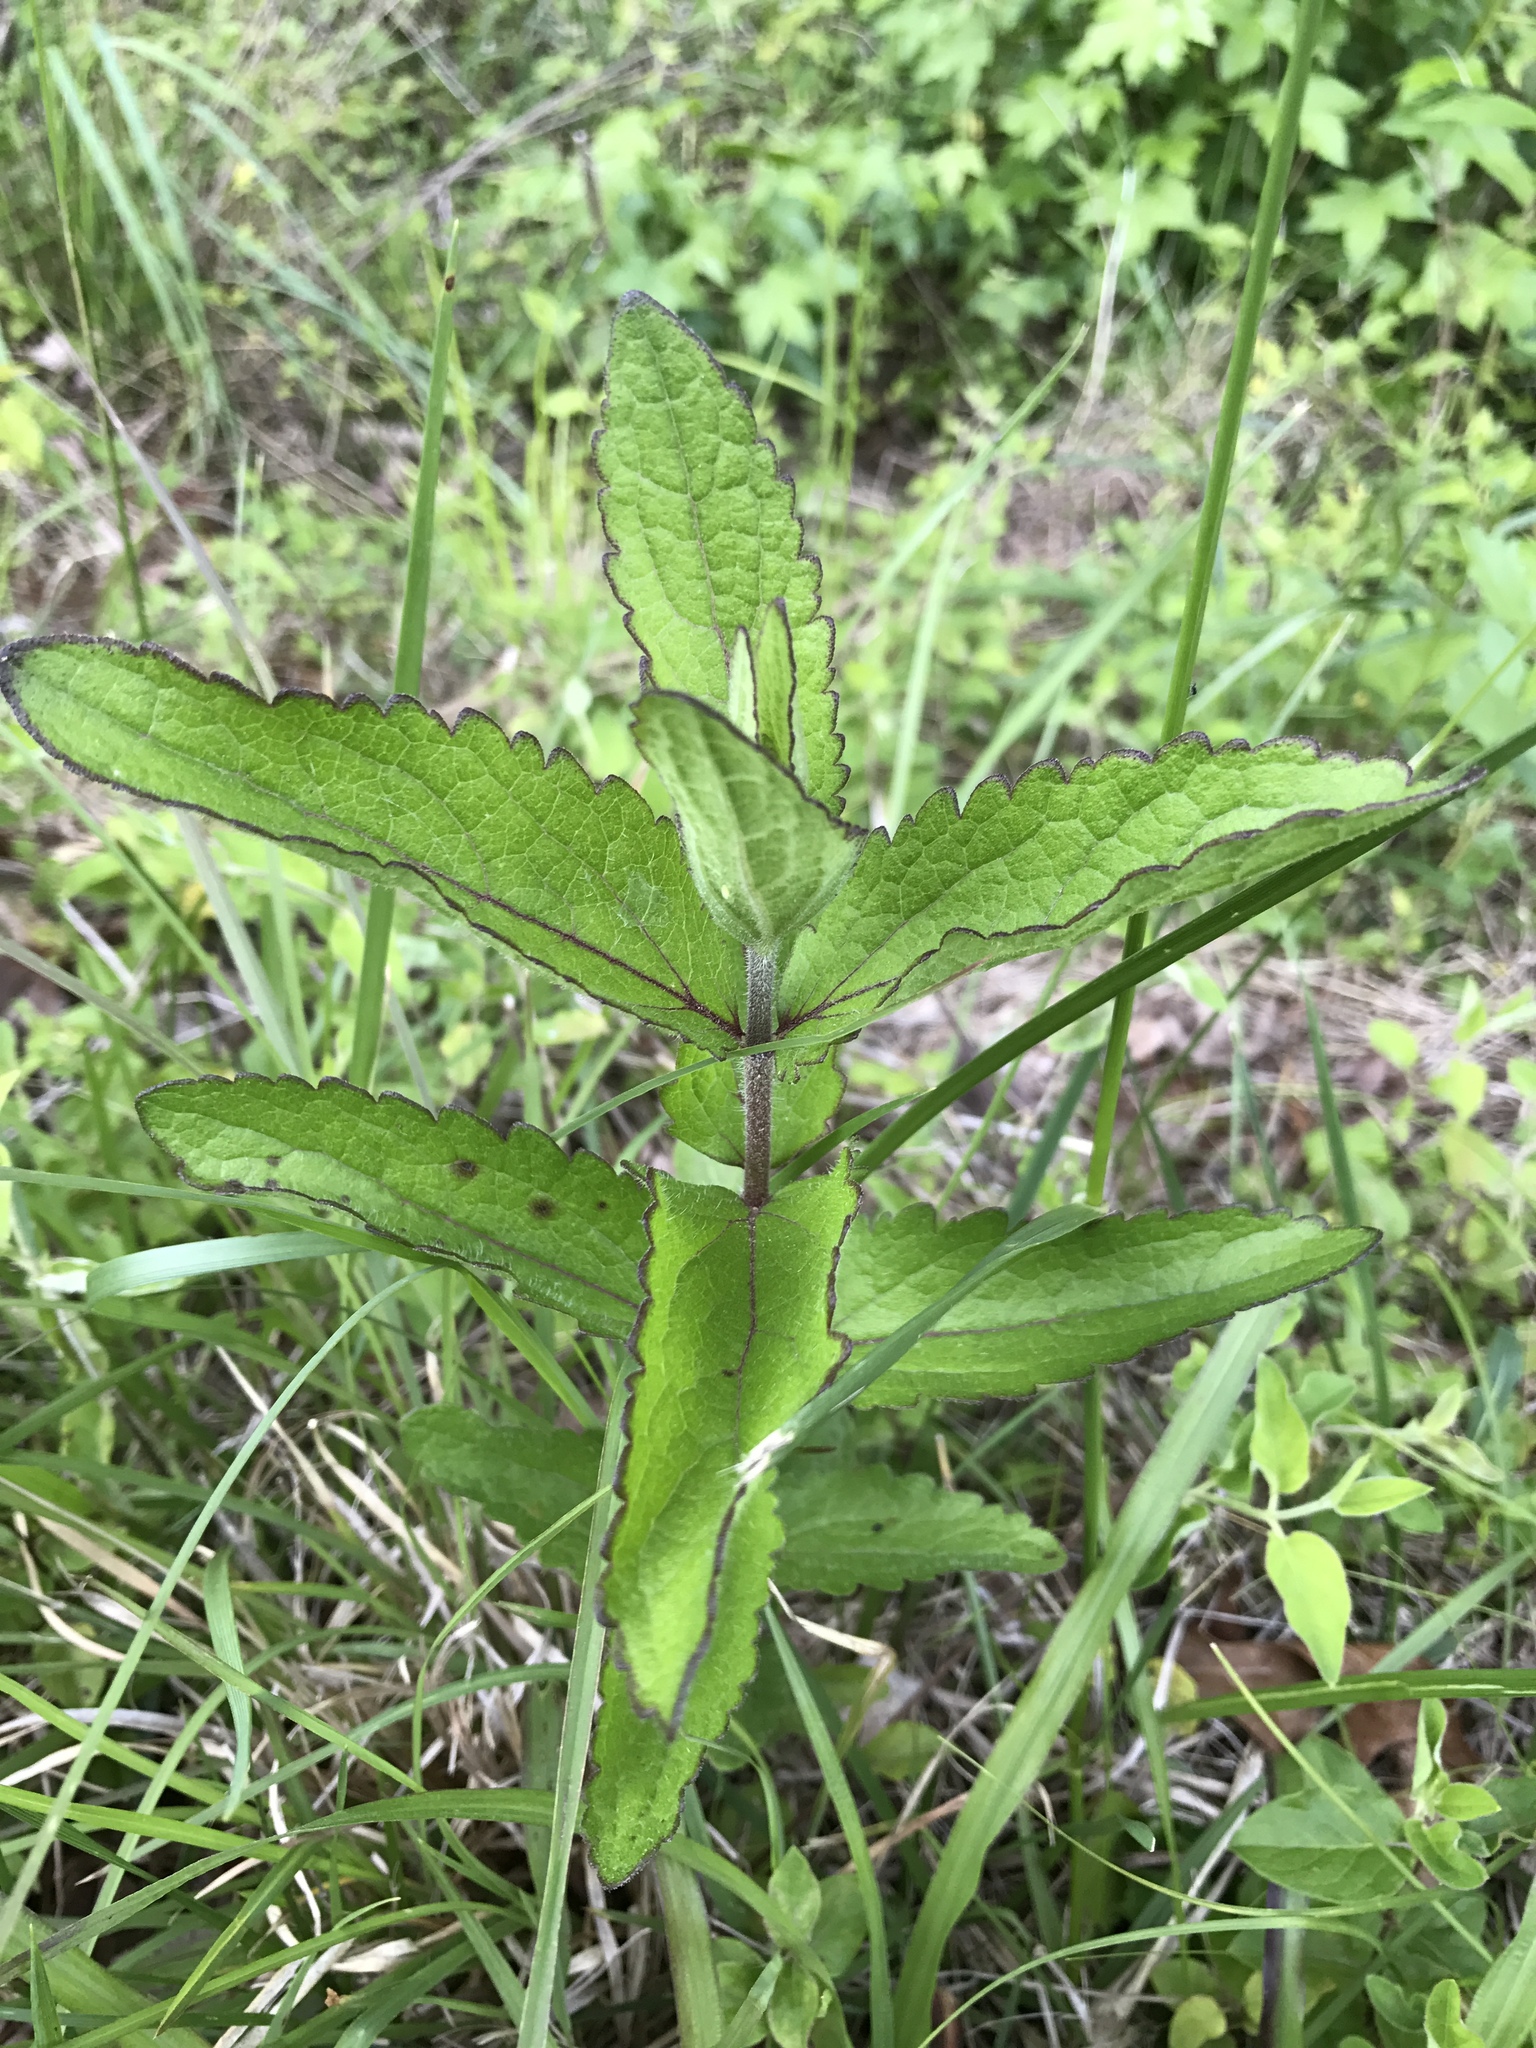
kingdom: Plantae
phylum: Tracheophyta
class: Magnoliopsida
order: Asterales
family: Asteraceae
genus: Eupatorium
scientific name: Eupatorium pilosum
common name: Rough boneset
